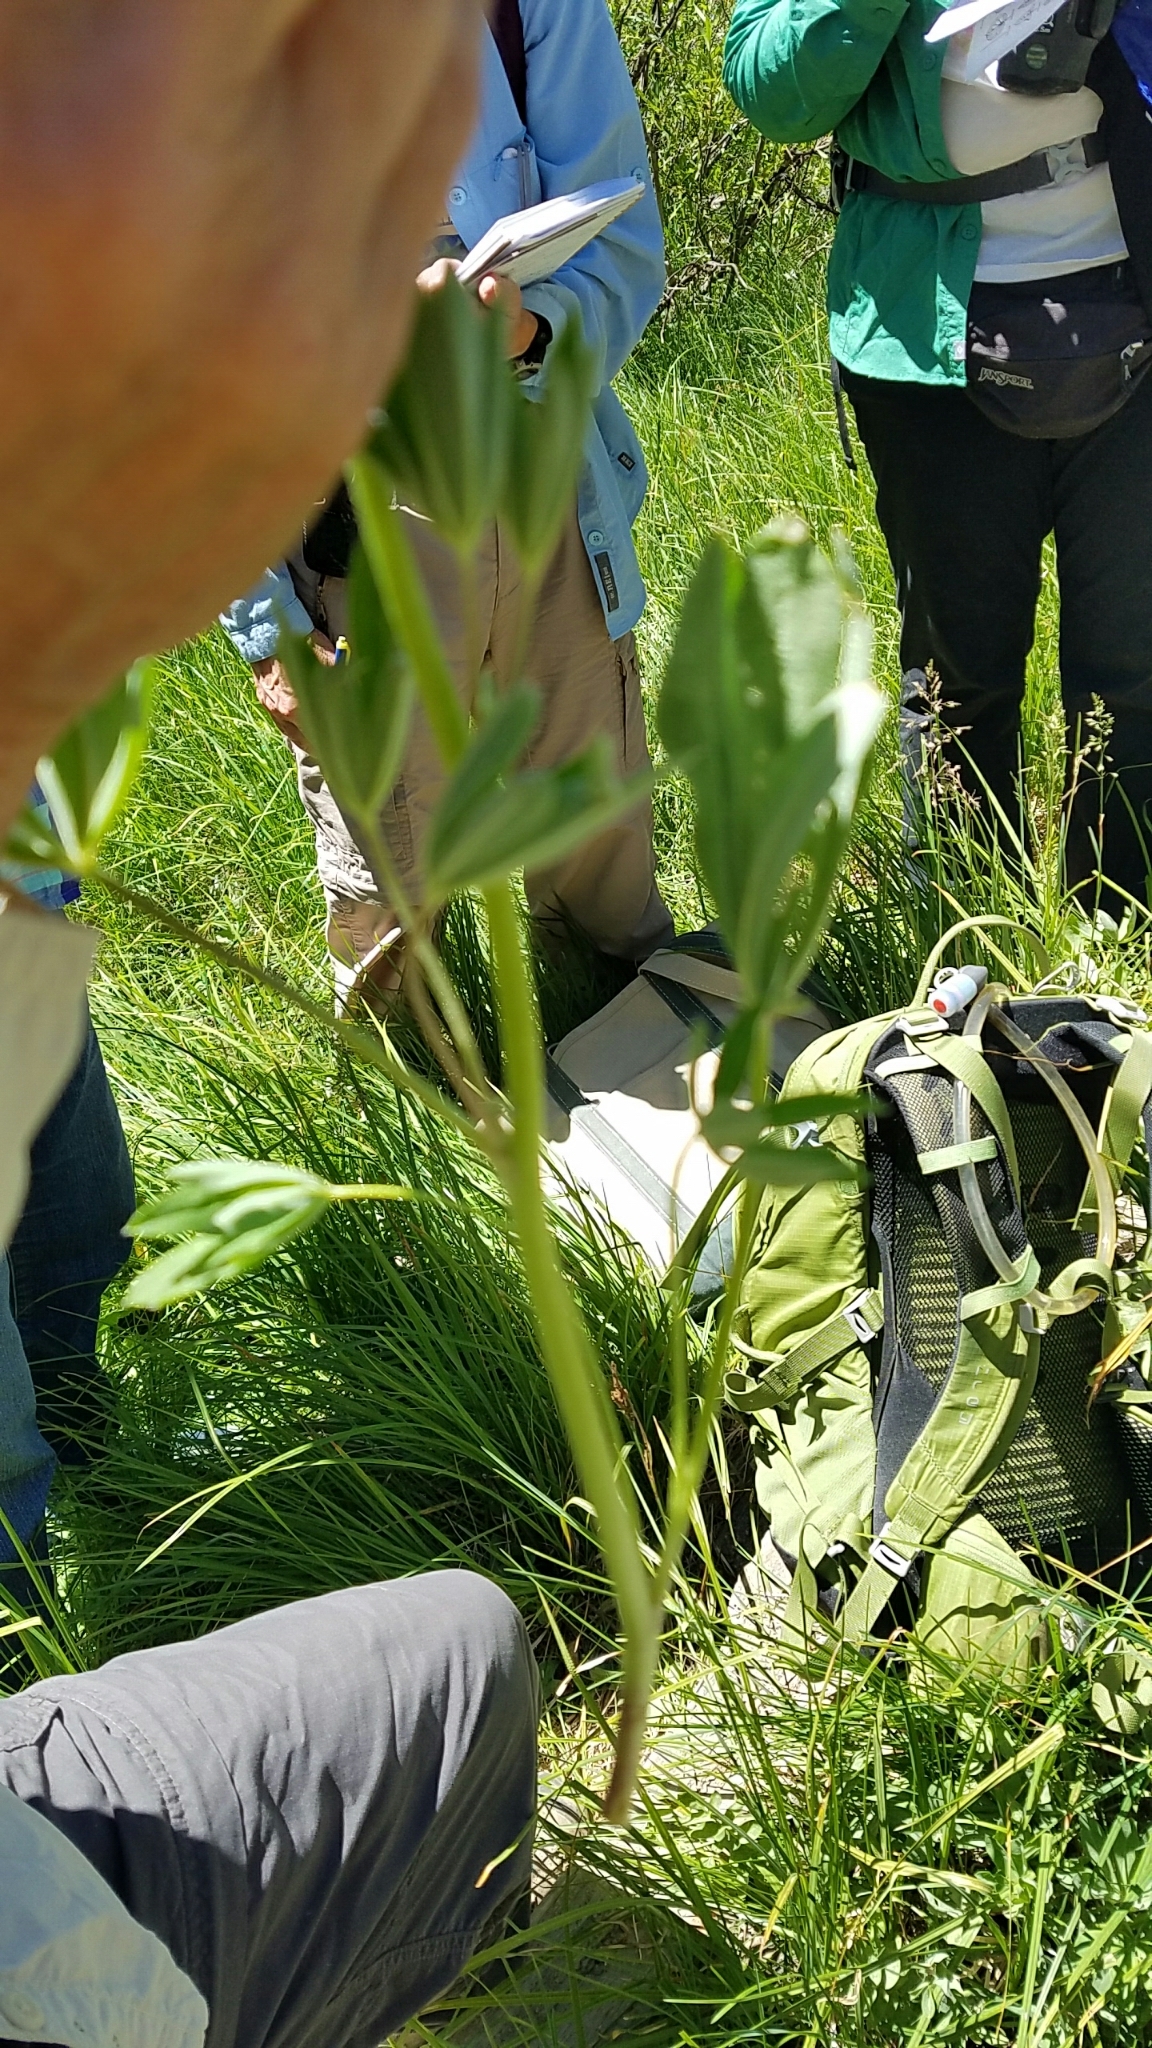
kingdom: Plantae
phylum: Tracheophyta
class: Magnoliopsida
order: Fabales
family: Fabaceae
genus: Lupinus
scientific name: Lupinus polyphyllus
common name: Garden lupin
